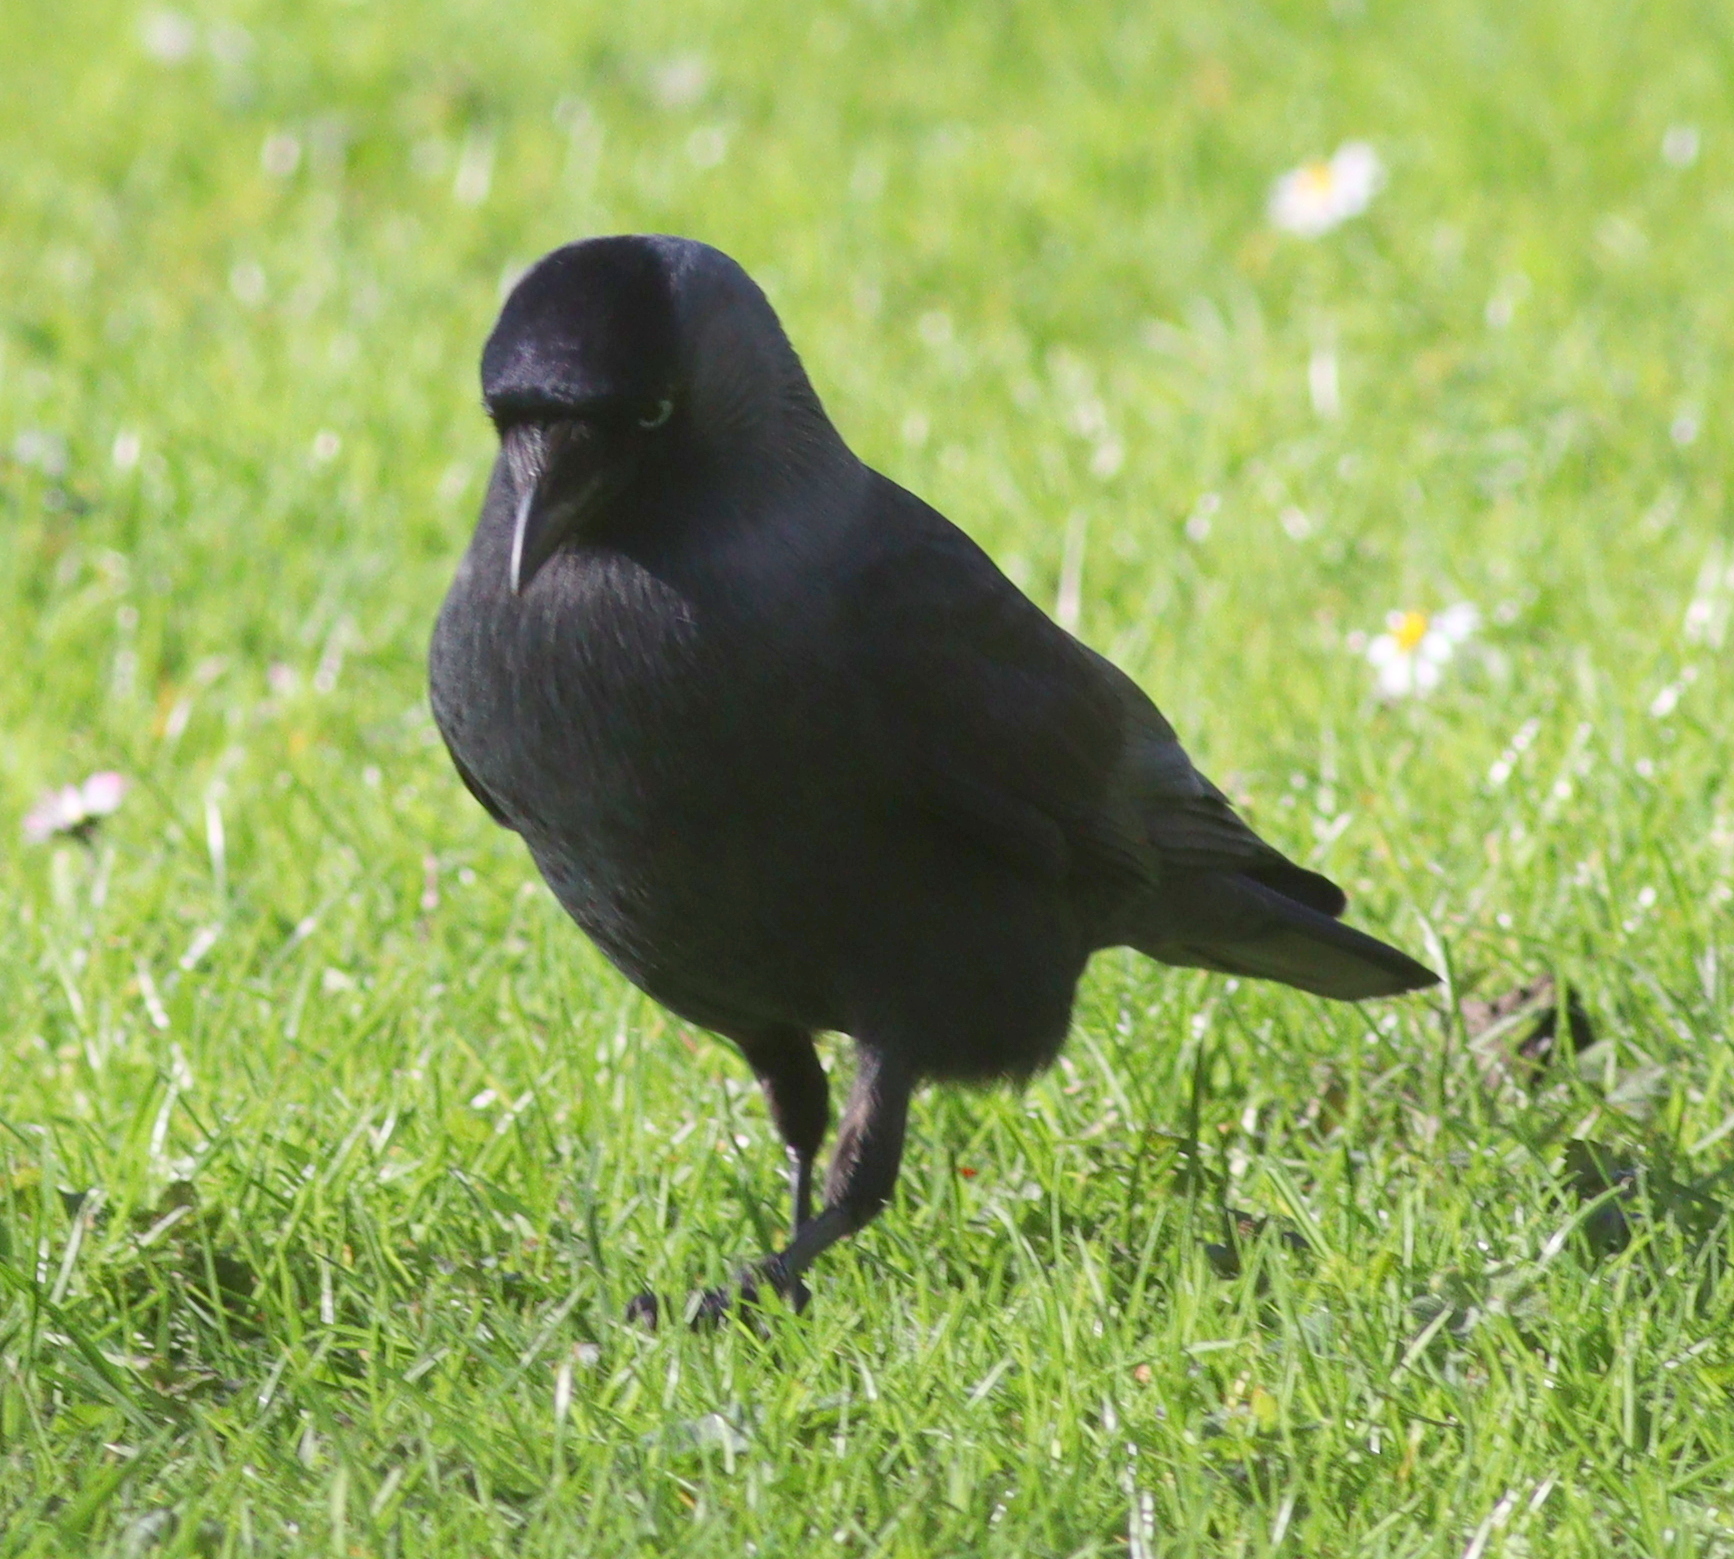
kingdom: Animalia
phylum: Chordata
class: Aves
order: Passeriformes
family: Corvidae
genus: Coloeus
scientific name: Coloeus monedula
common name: Western jackdaw
